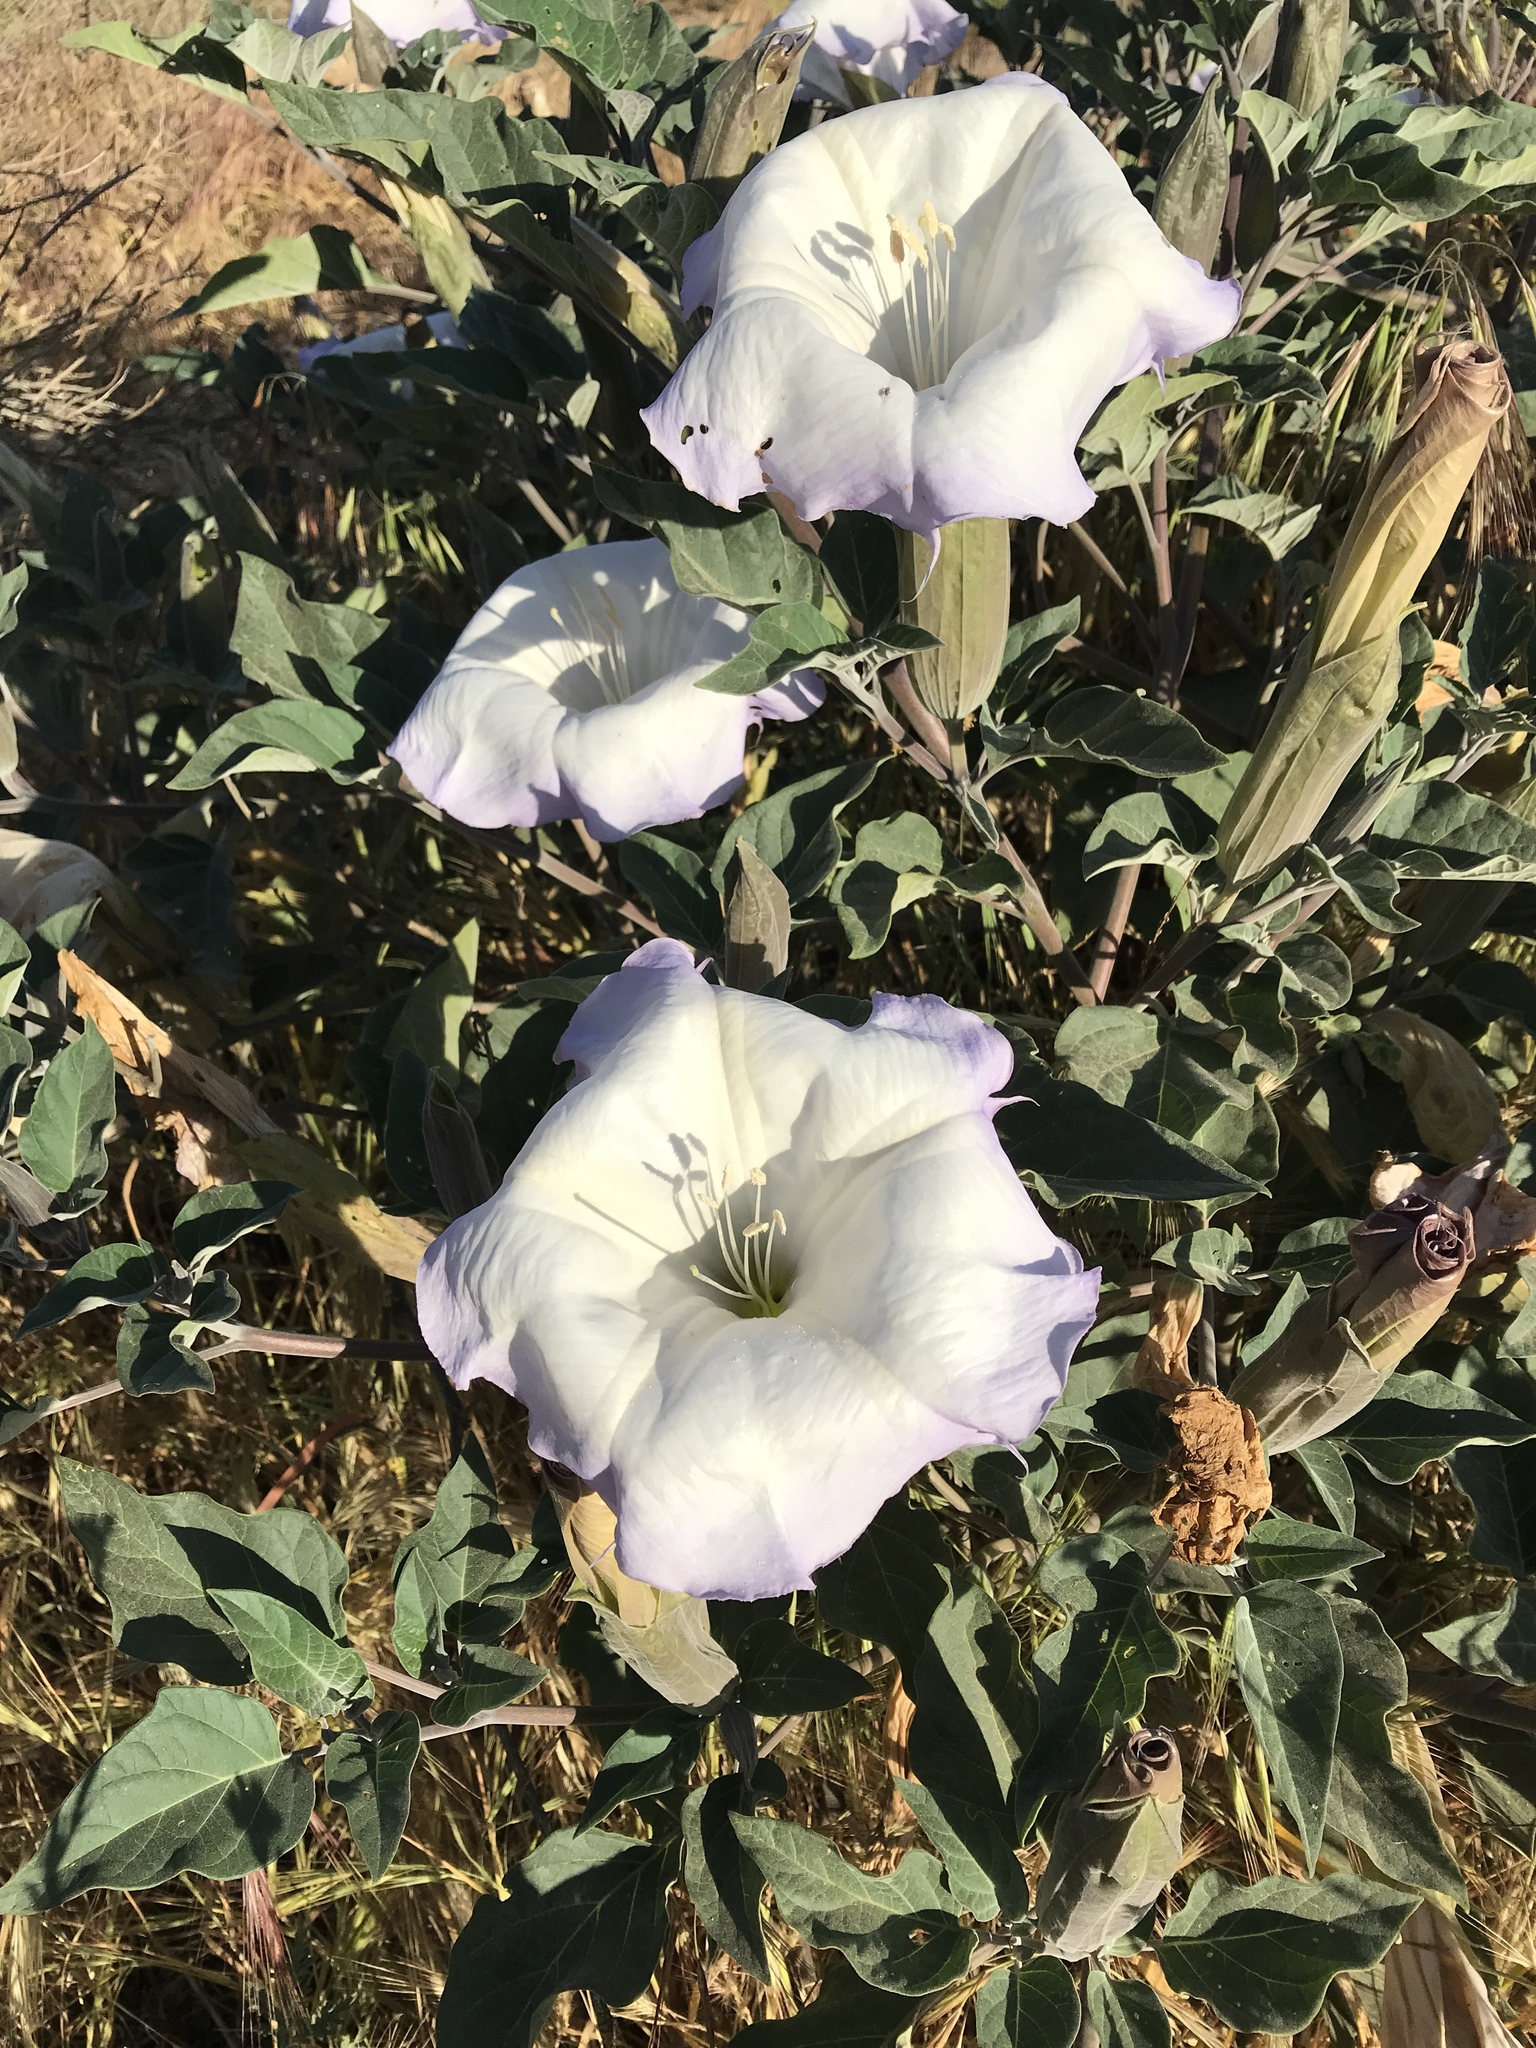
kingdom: Plantae
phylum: Tracheophyta
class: Magnoliopsida
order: Solanales
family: Solanaceae
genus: Datura
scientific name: Datura wrightii
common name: Sacred thorn-apple
